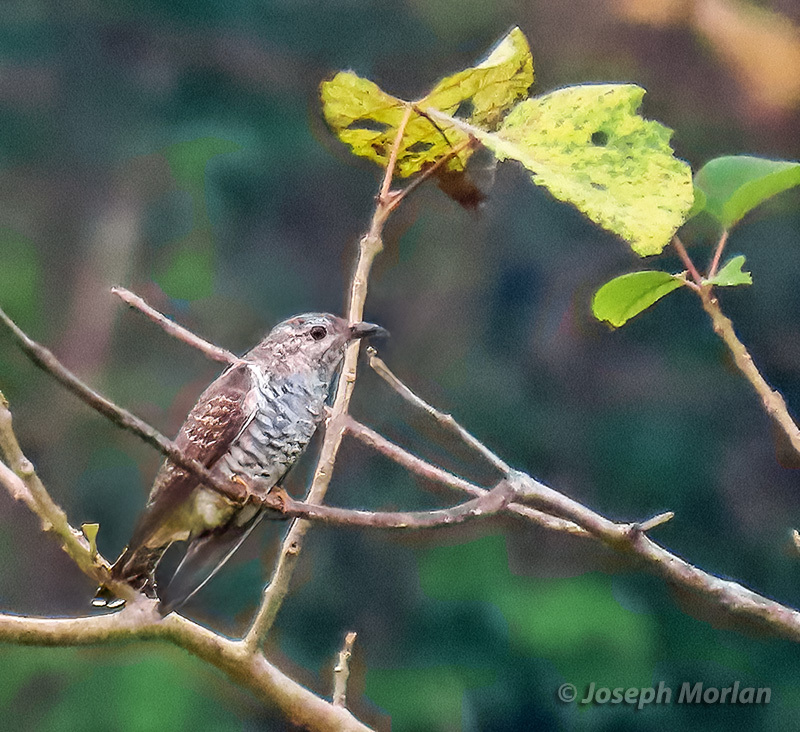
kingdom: Animalia
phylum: Chordata
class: Aves
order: Cuculiformes
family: Cuculidae
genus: Chrysococcyx
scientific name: Chrysococcyx minutillus
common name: Little bronze cuckoo
